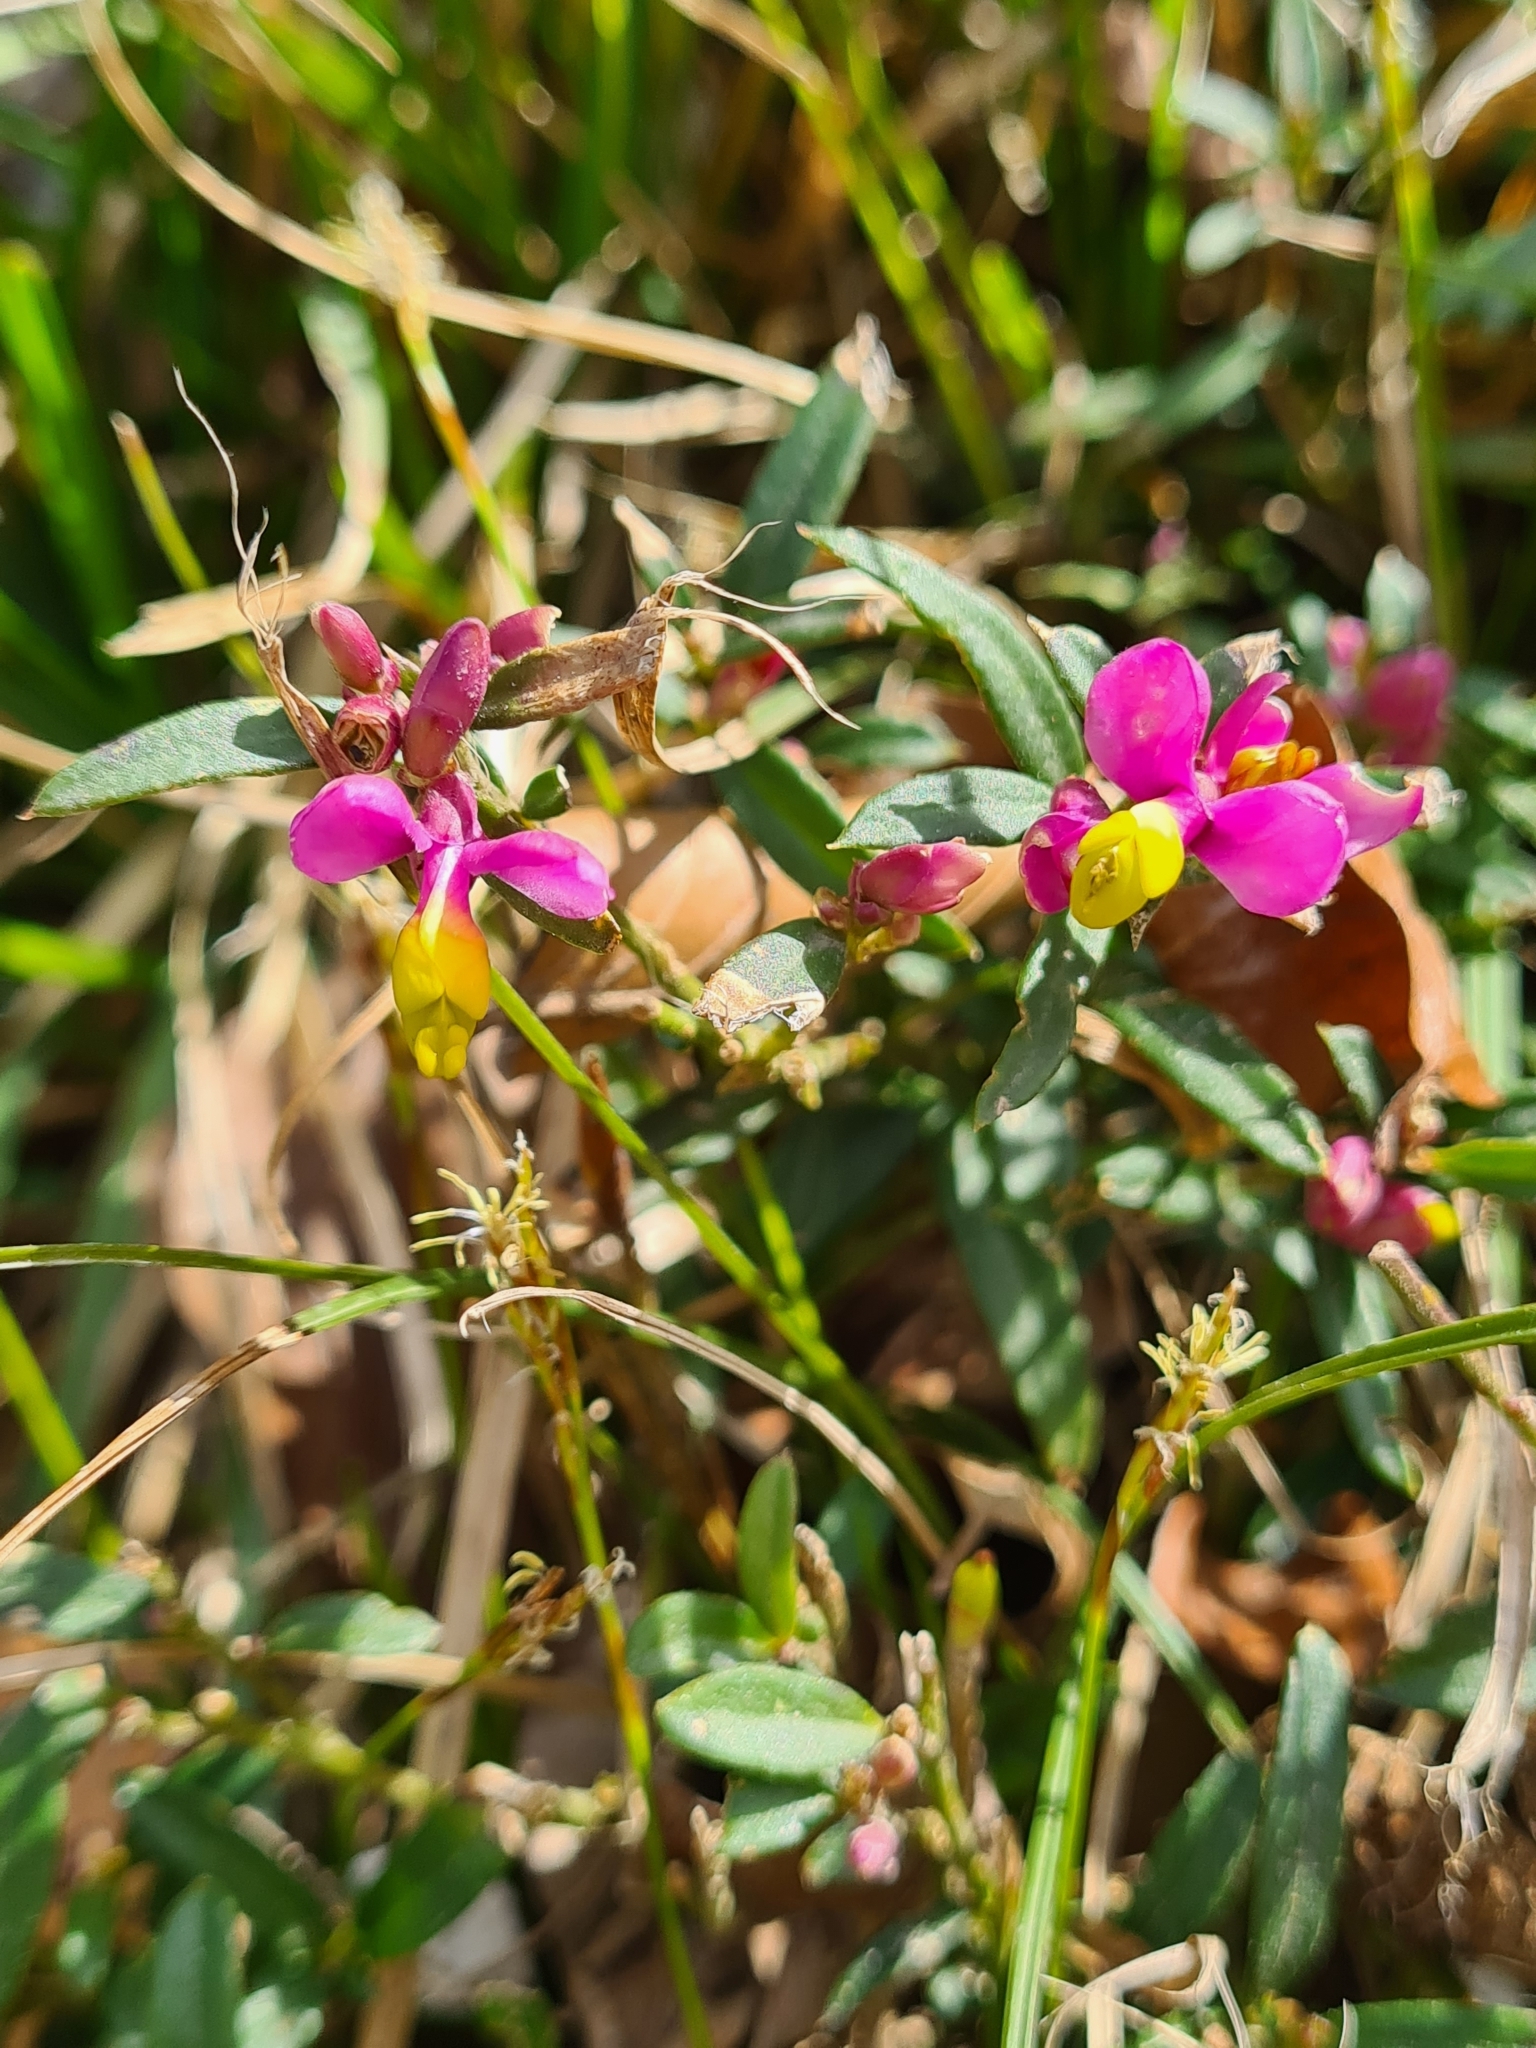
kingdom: Plantae
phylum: Tracheophyta
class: Magnoliopsida
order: Fabales
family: Polygalaceae
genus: Polygaloides
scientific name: Polygaloides chamaebuxus
